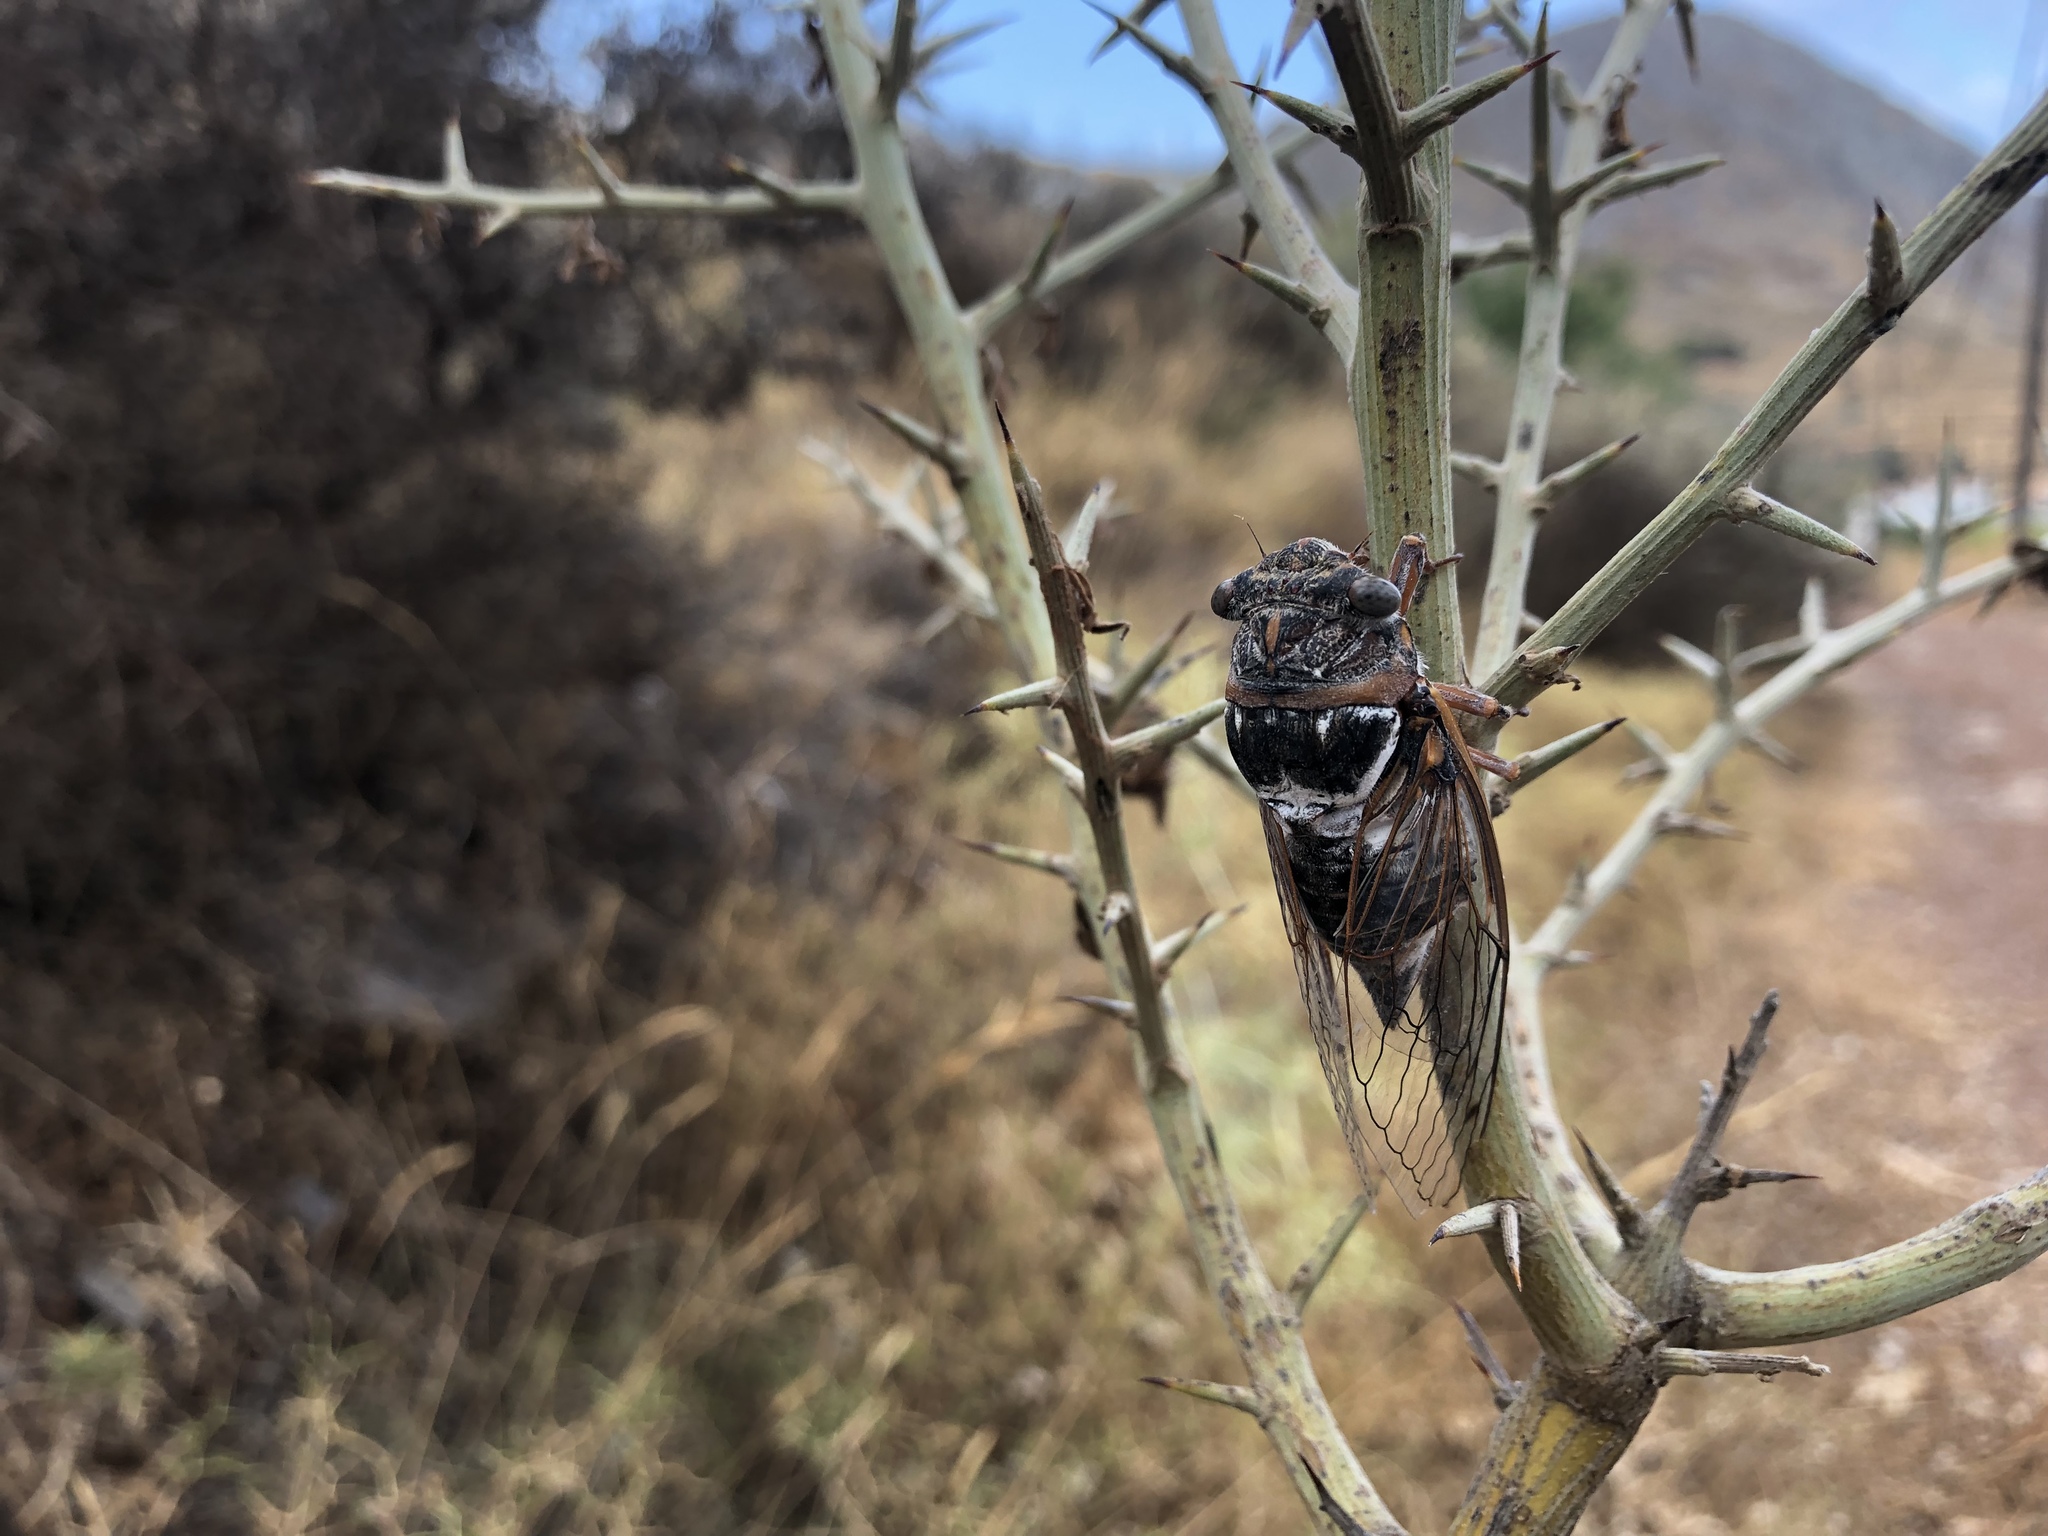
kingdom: Animalia
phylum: Arthropoda
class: Insecta
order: Hemiptera
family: Cicadidae
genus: Lyristes
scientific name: Lyristes plebejus
